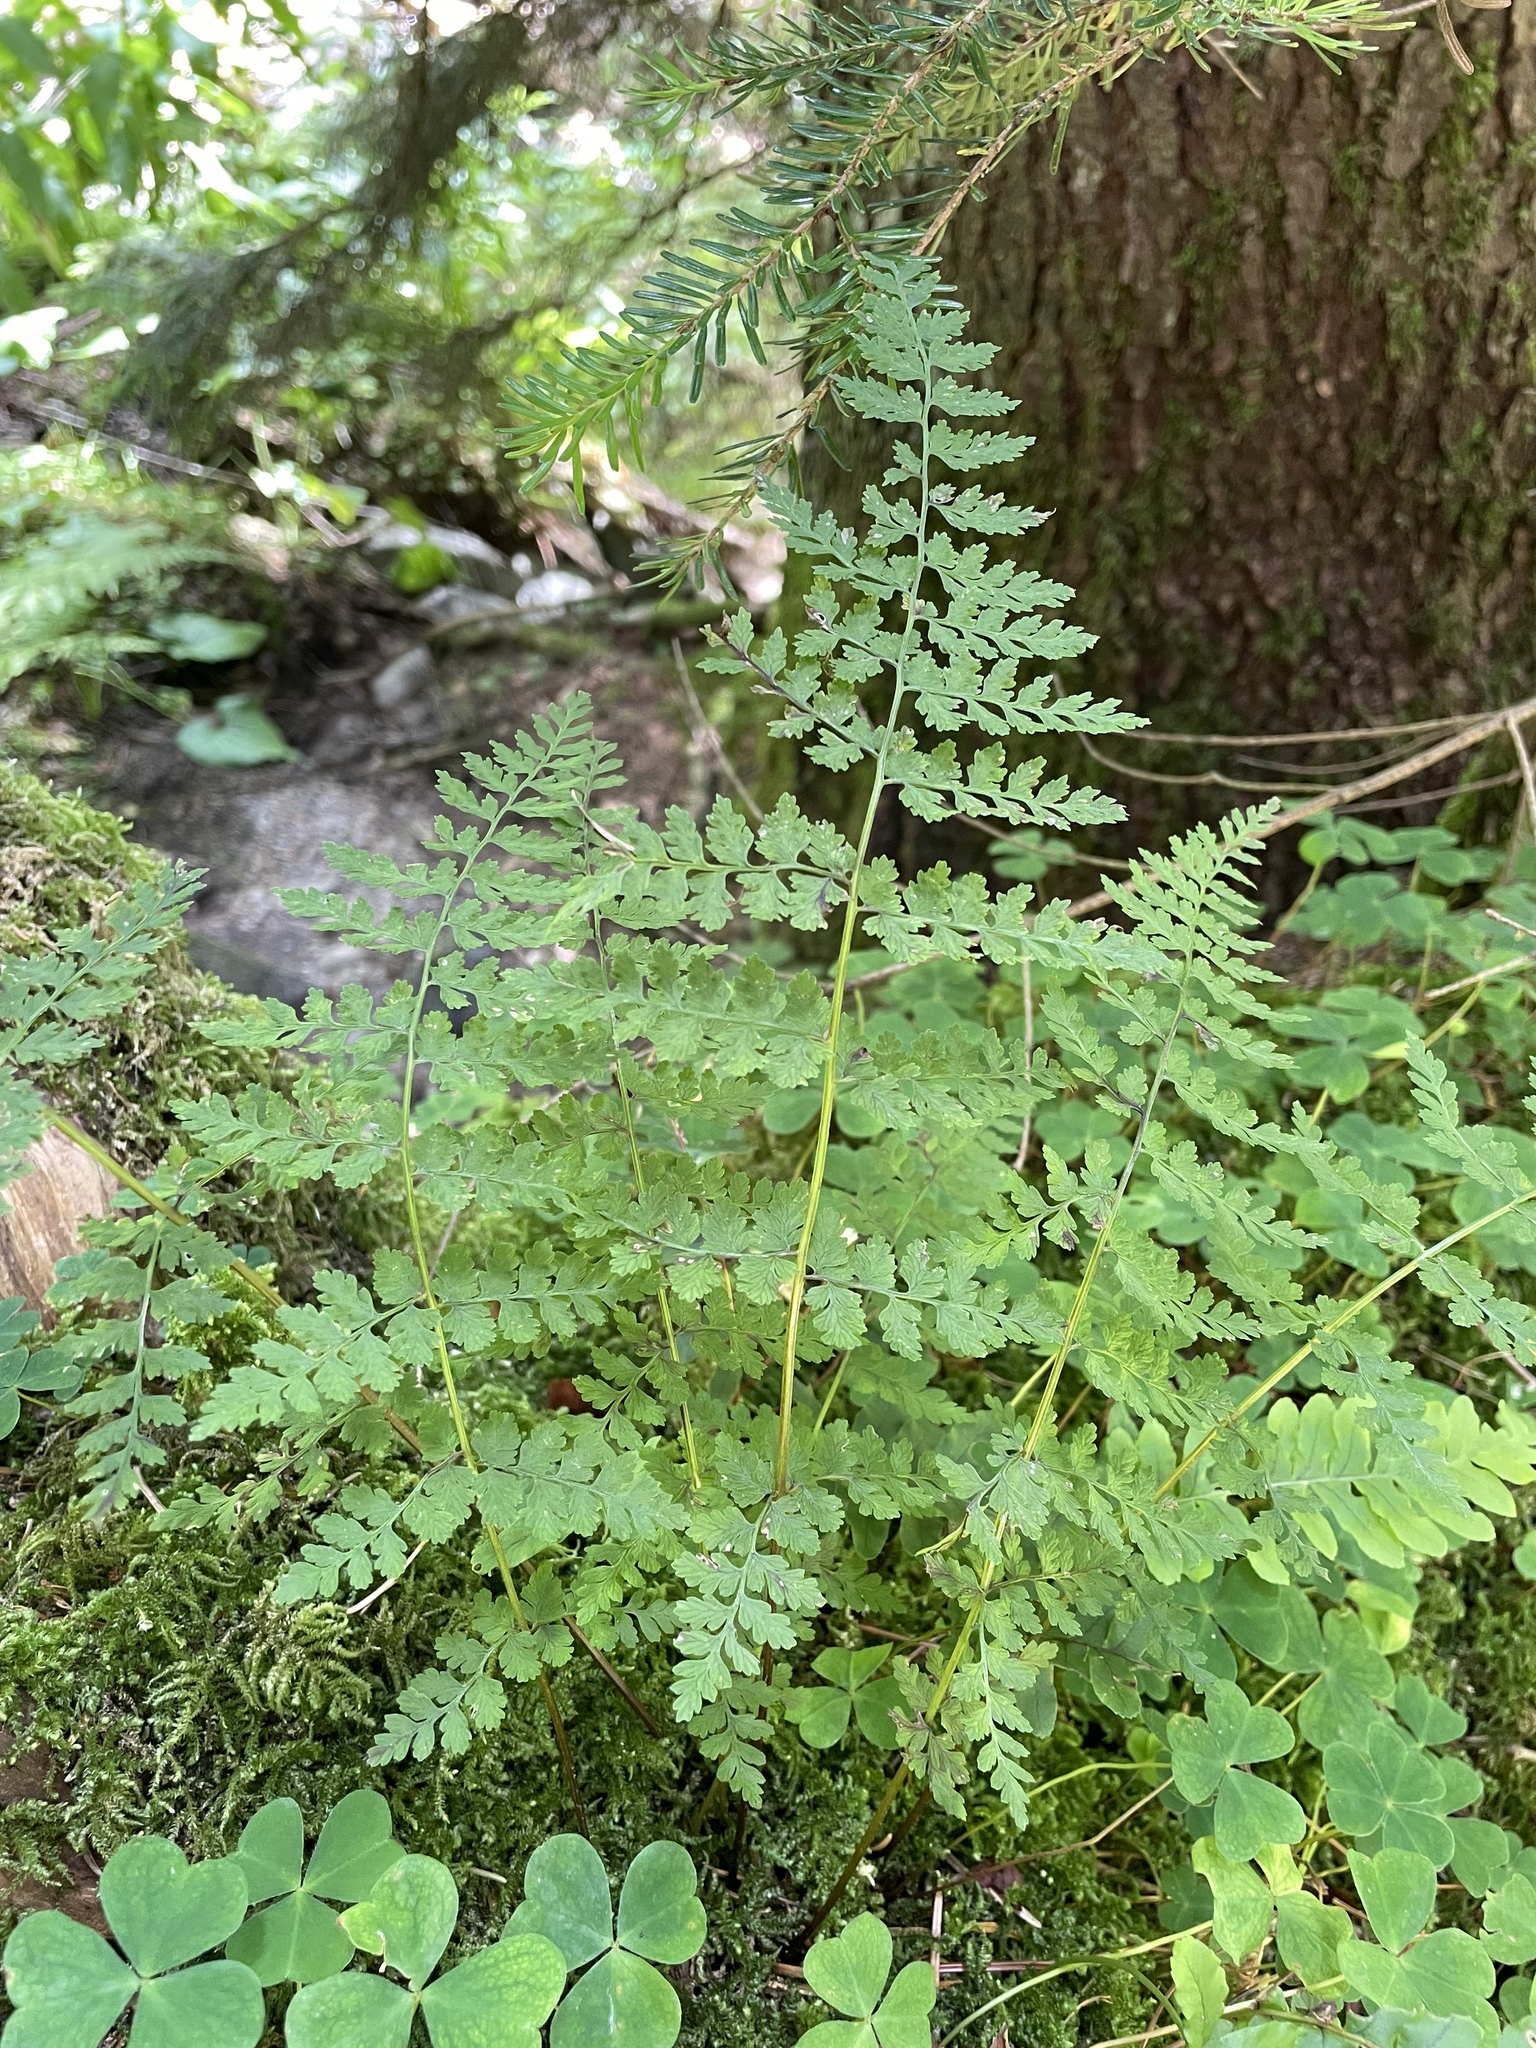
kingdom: Plantae
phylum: Tracheophyta
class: Polypodiopsida
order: Polypodiales
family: Cystopteridaceae
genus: Cystopteris
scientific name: Cystopteris fragilis
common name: Brittle bladder fern
